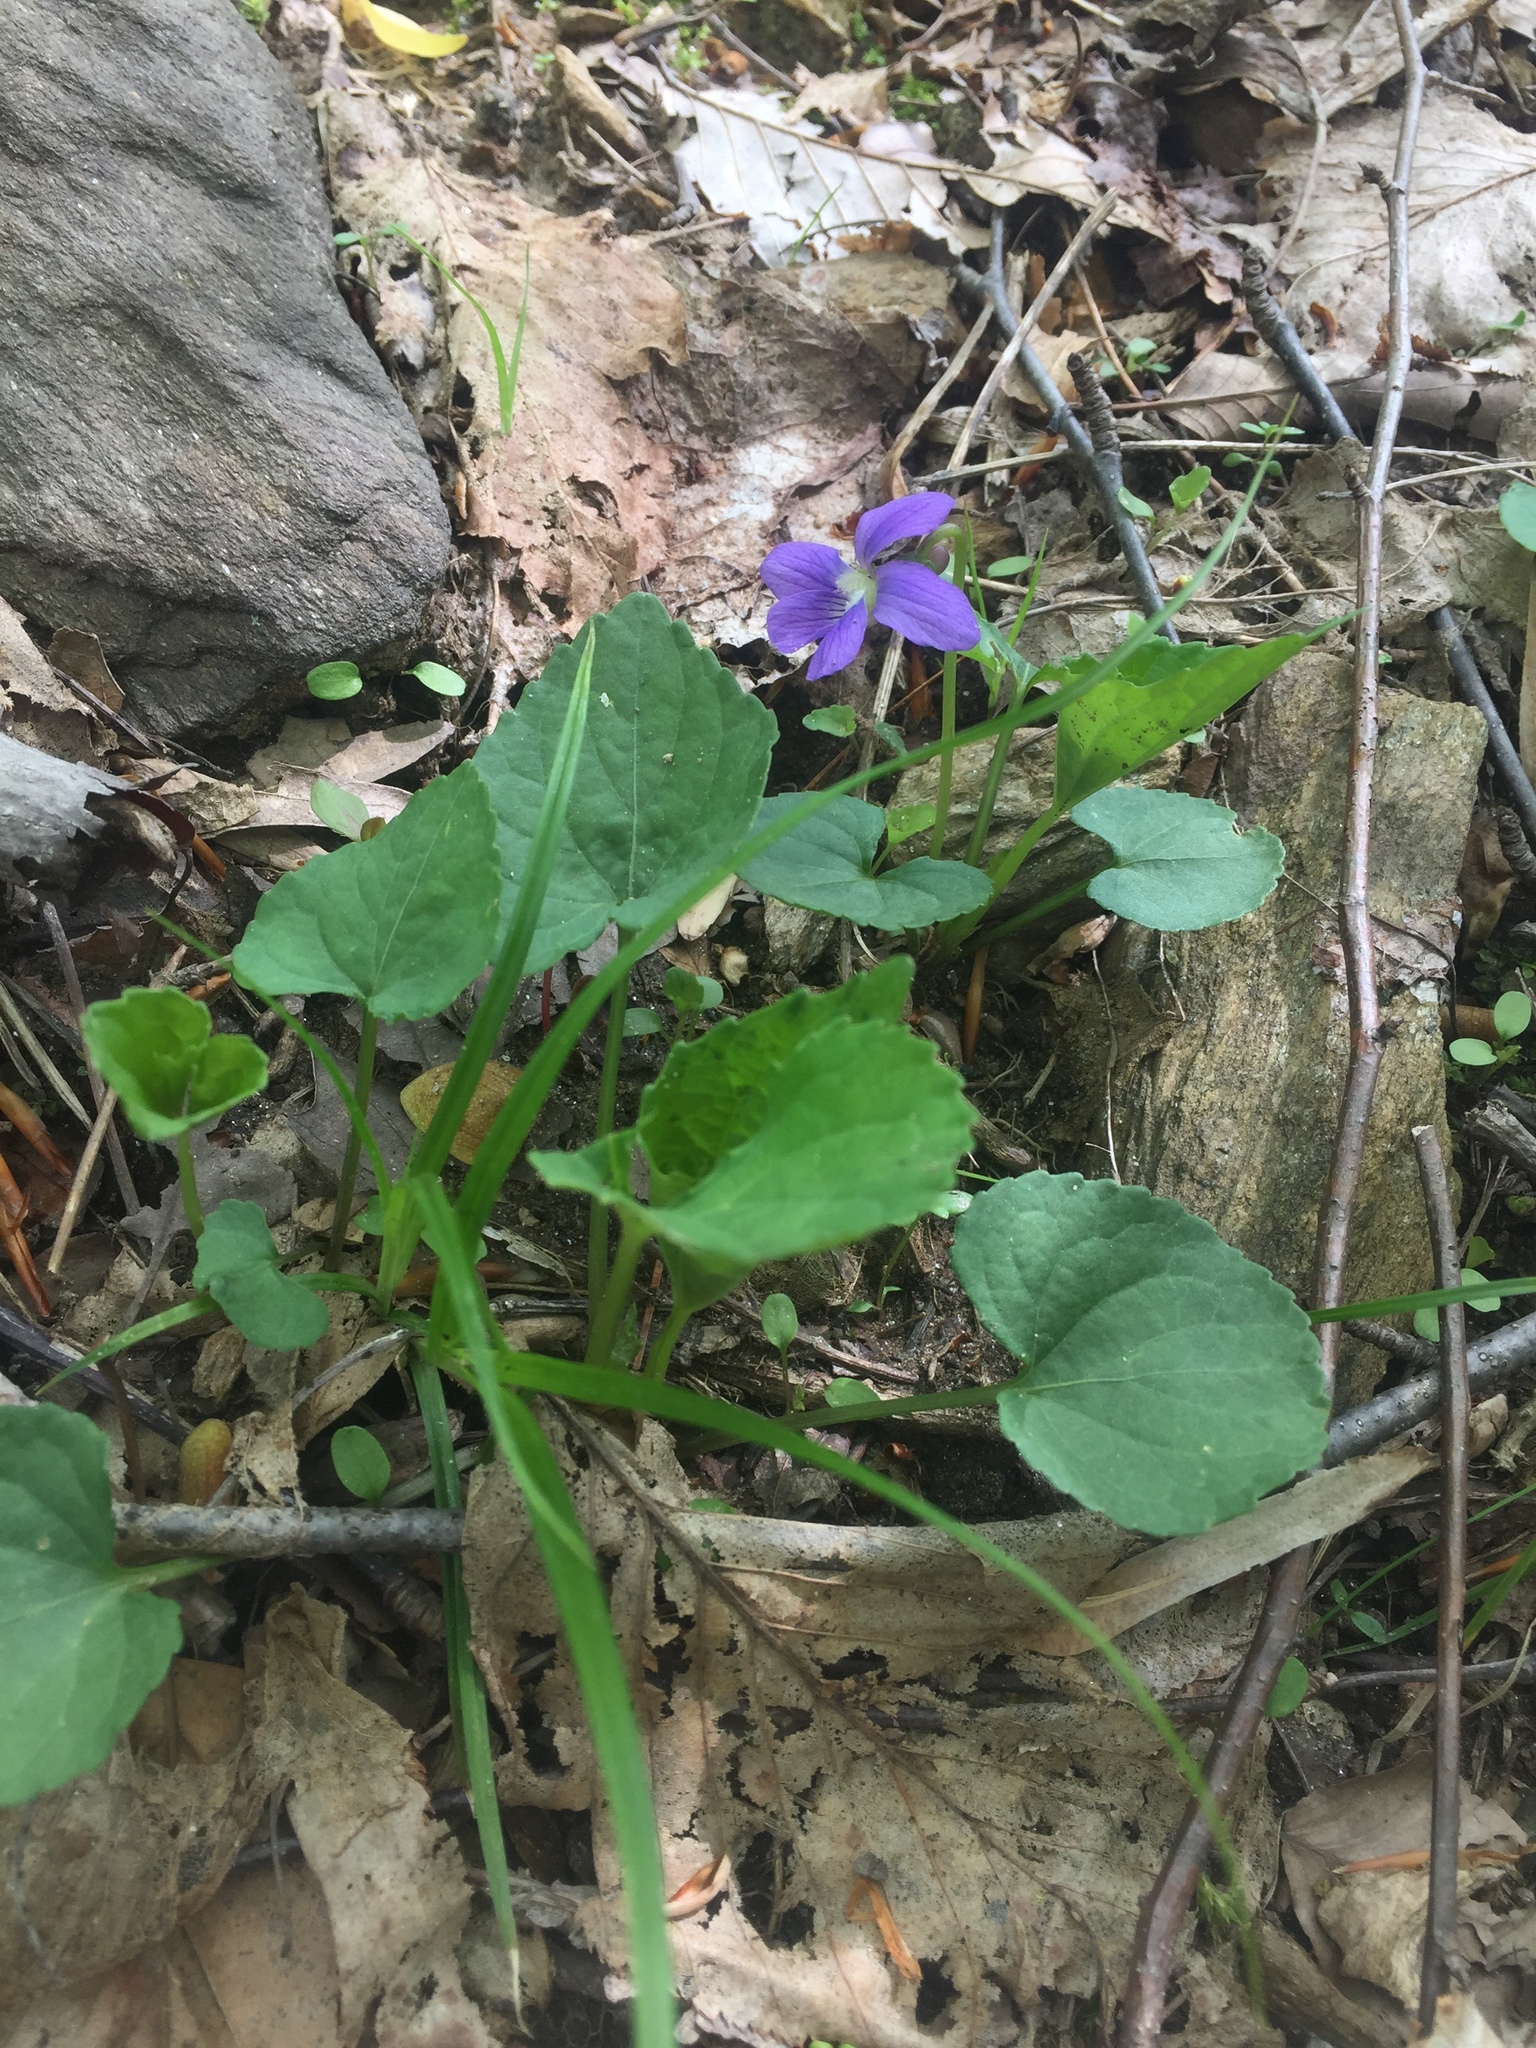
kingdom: Plantae
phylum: Tracheophyta
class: Magnoliopsida
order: Malpighiales
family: Violaceae
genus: Viola
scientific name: Viola sororia
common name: Dooryard violet
